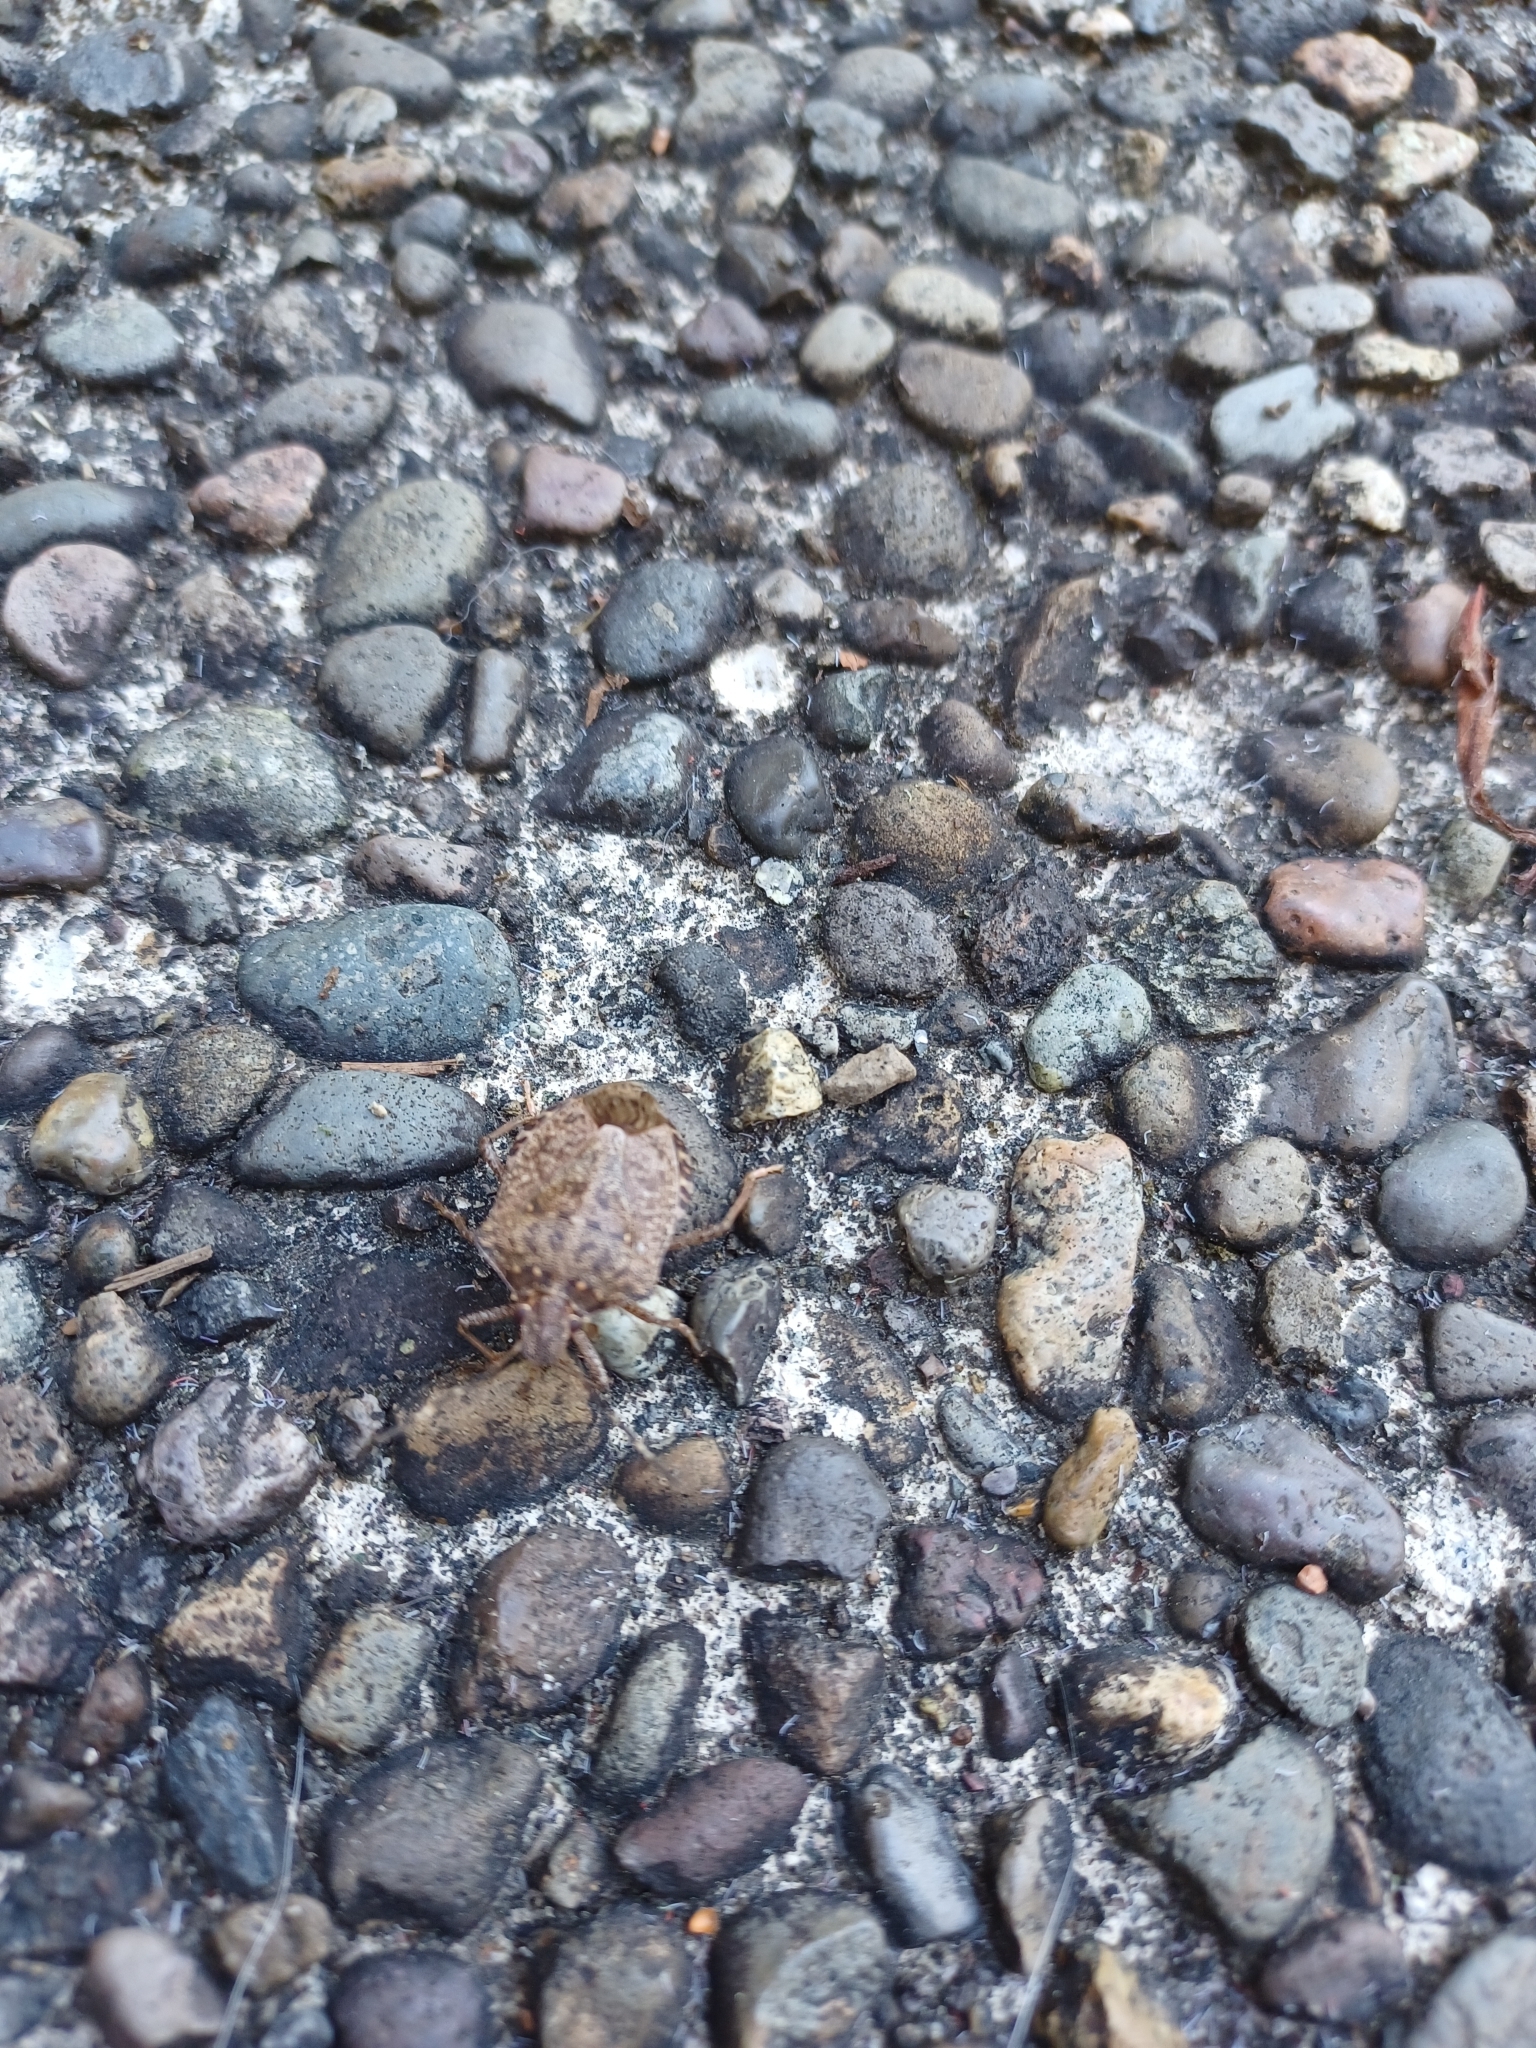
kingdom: Animalia
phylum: Arthropoda
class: Insecta
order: Hemiptera
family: Pentatomidae
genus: Halyomorpha
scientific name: Halyomorpha halys
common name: Brown marmorated stink bug
